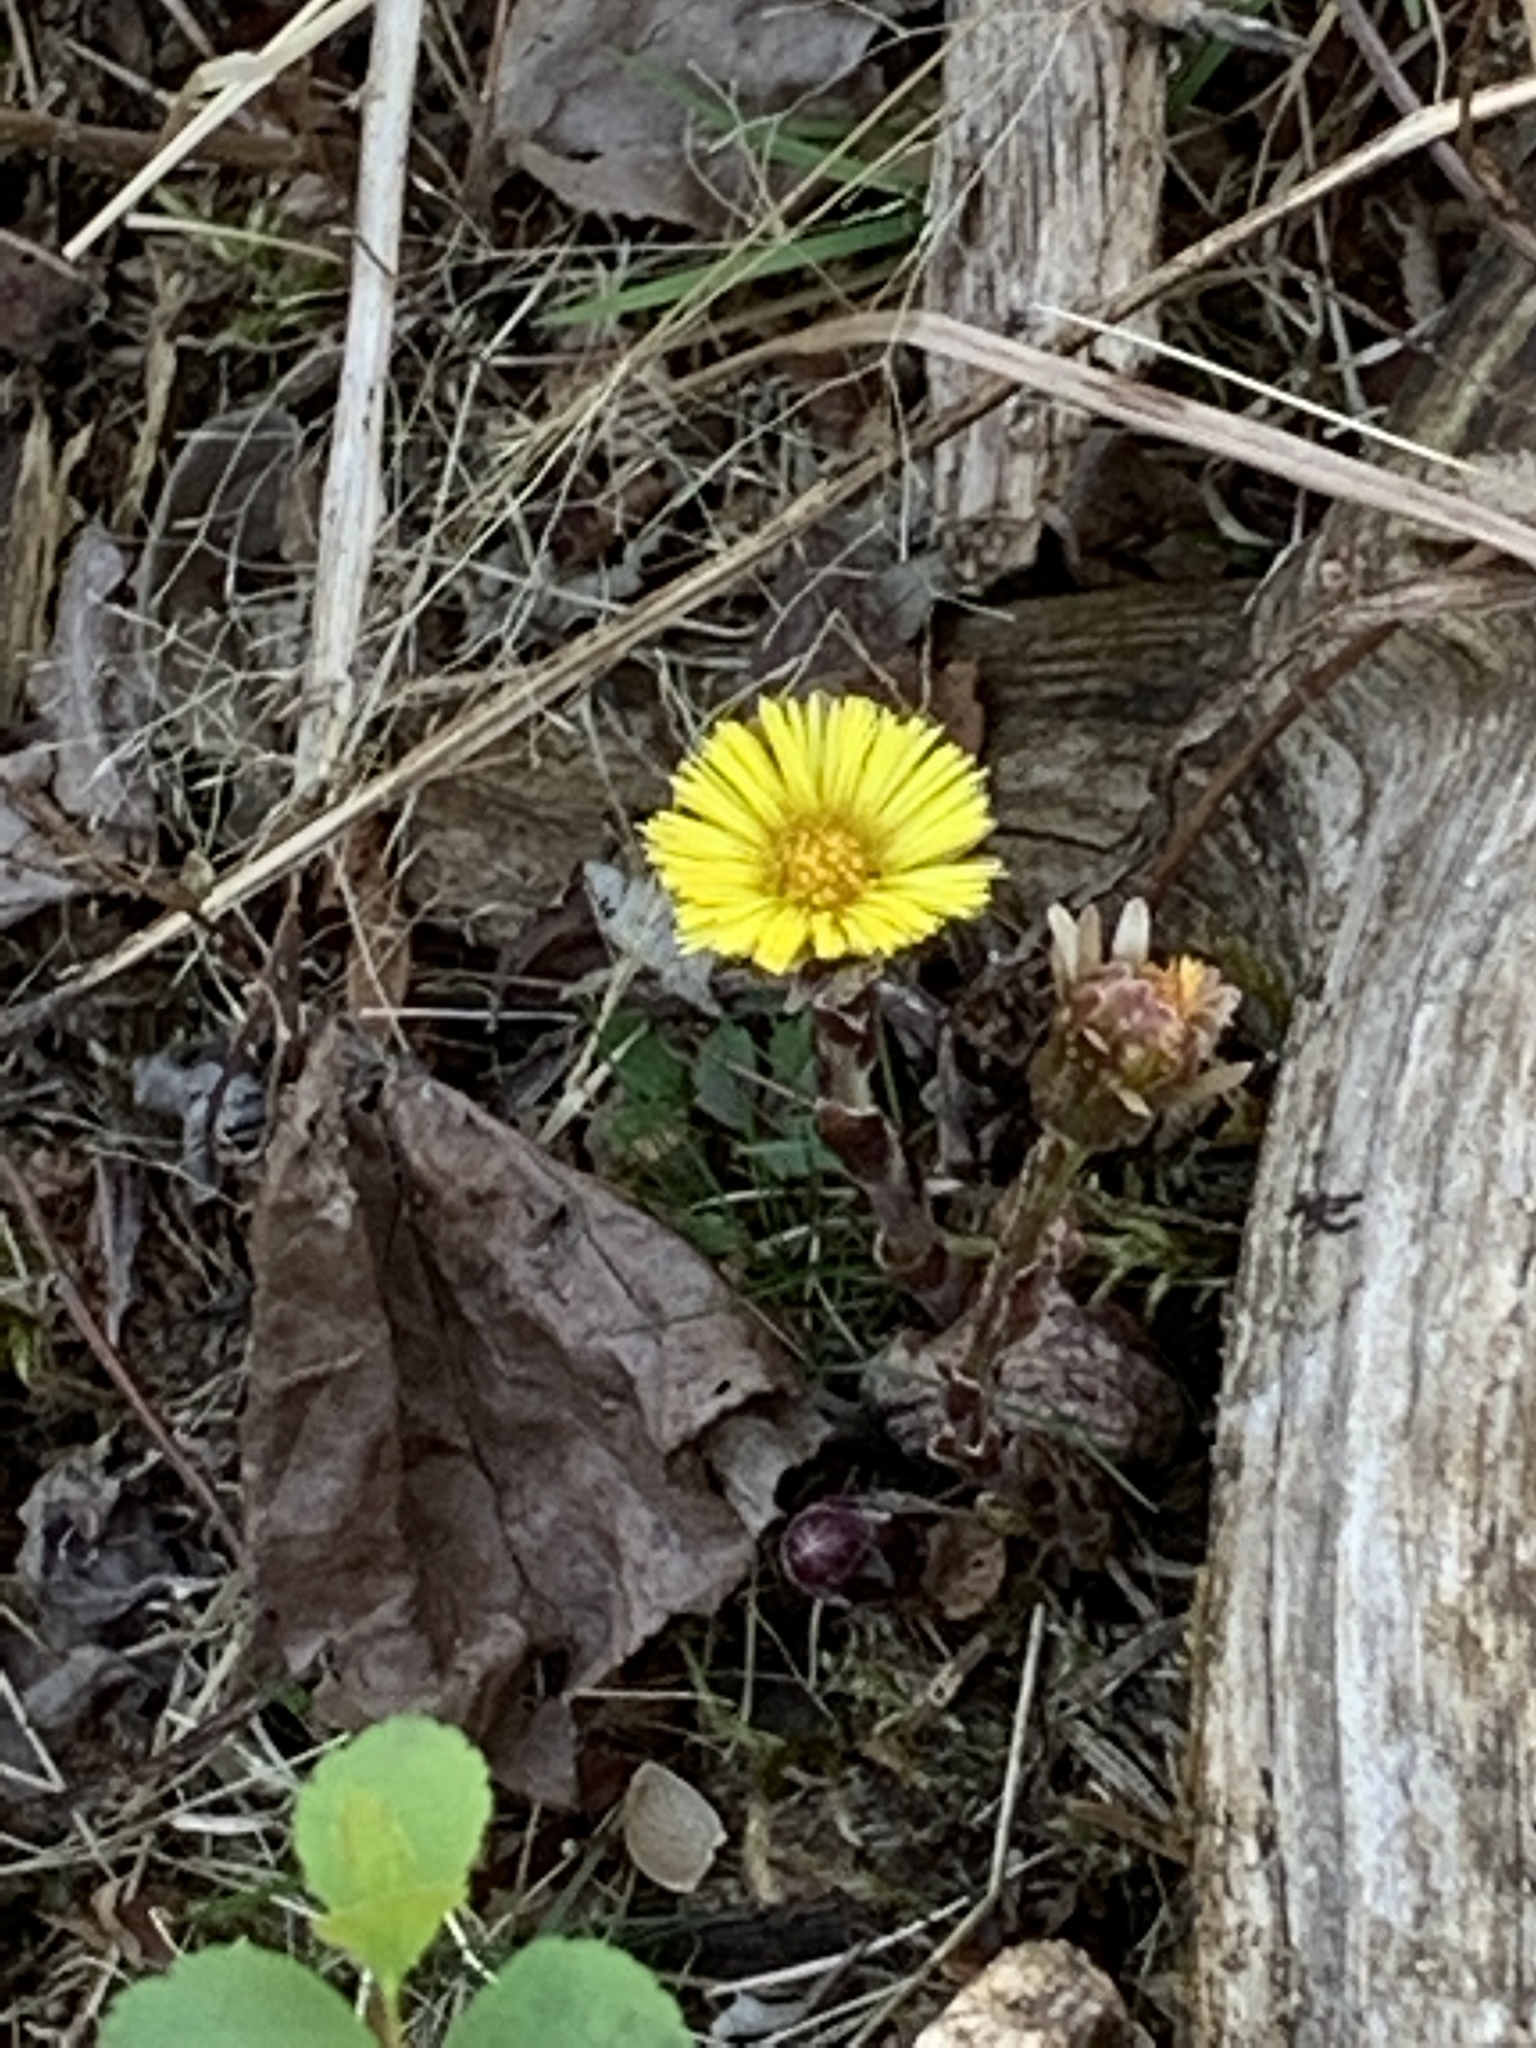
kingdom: Plantae
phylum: Tracheophyta
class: Magnoliopsida
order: Asterales
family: Asteraceae
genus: Tussilago
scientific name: Tussilago farfara
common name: Coltsfoot
